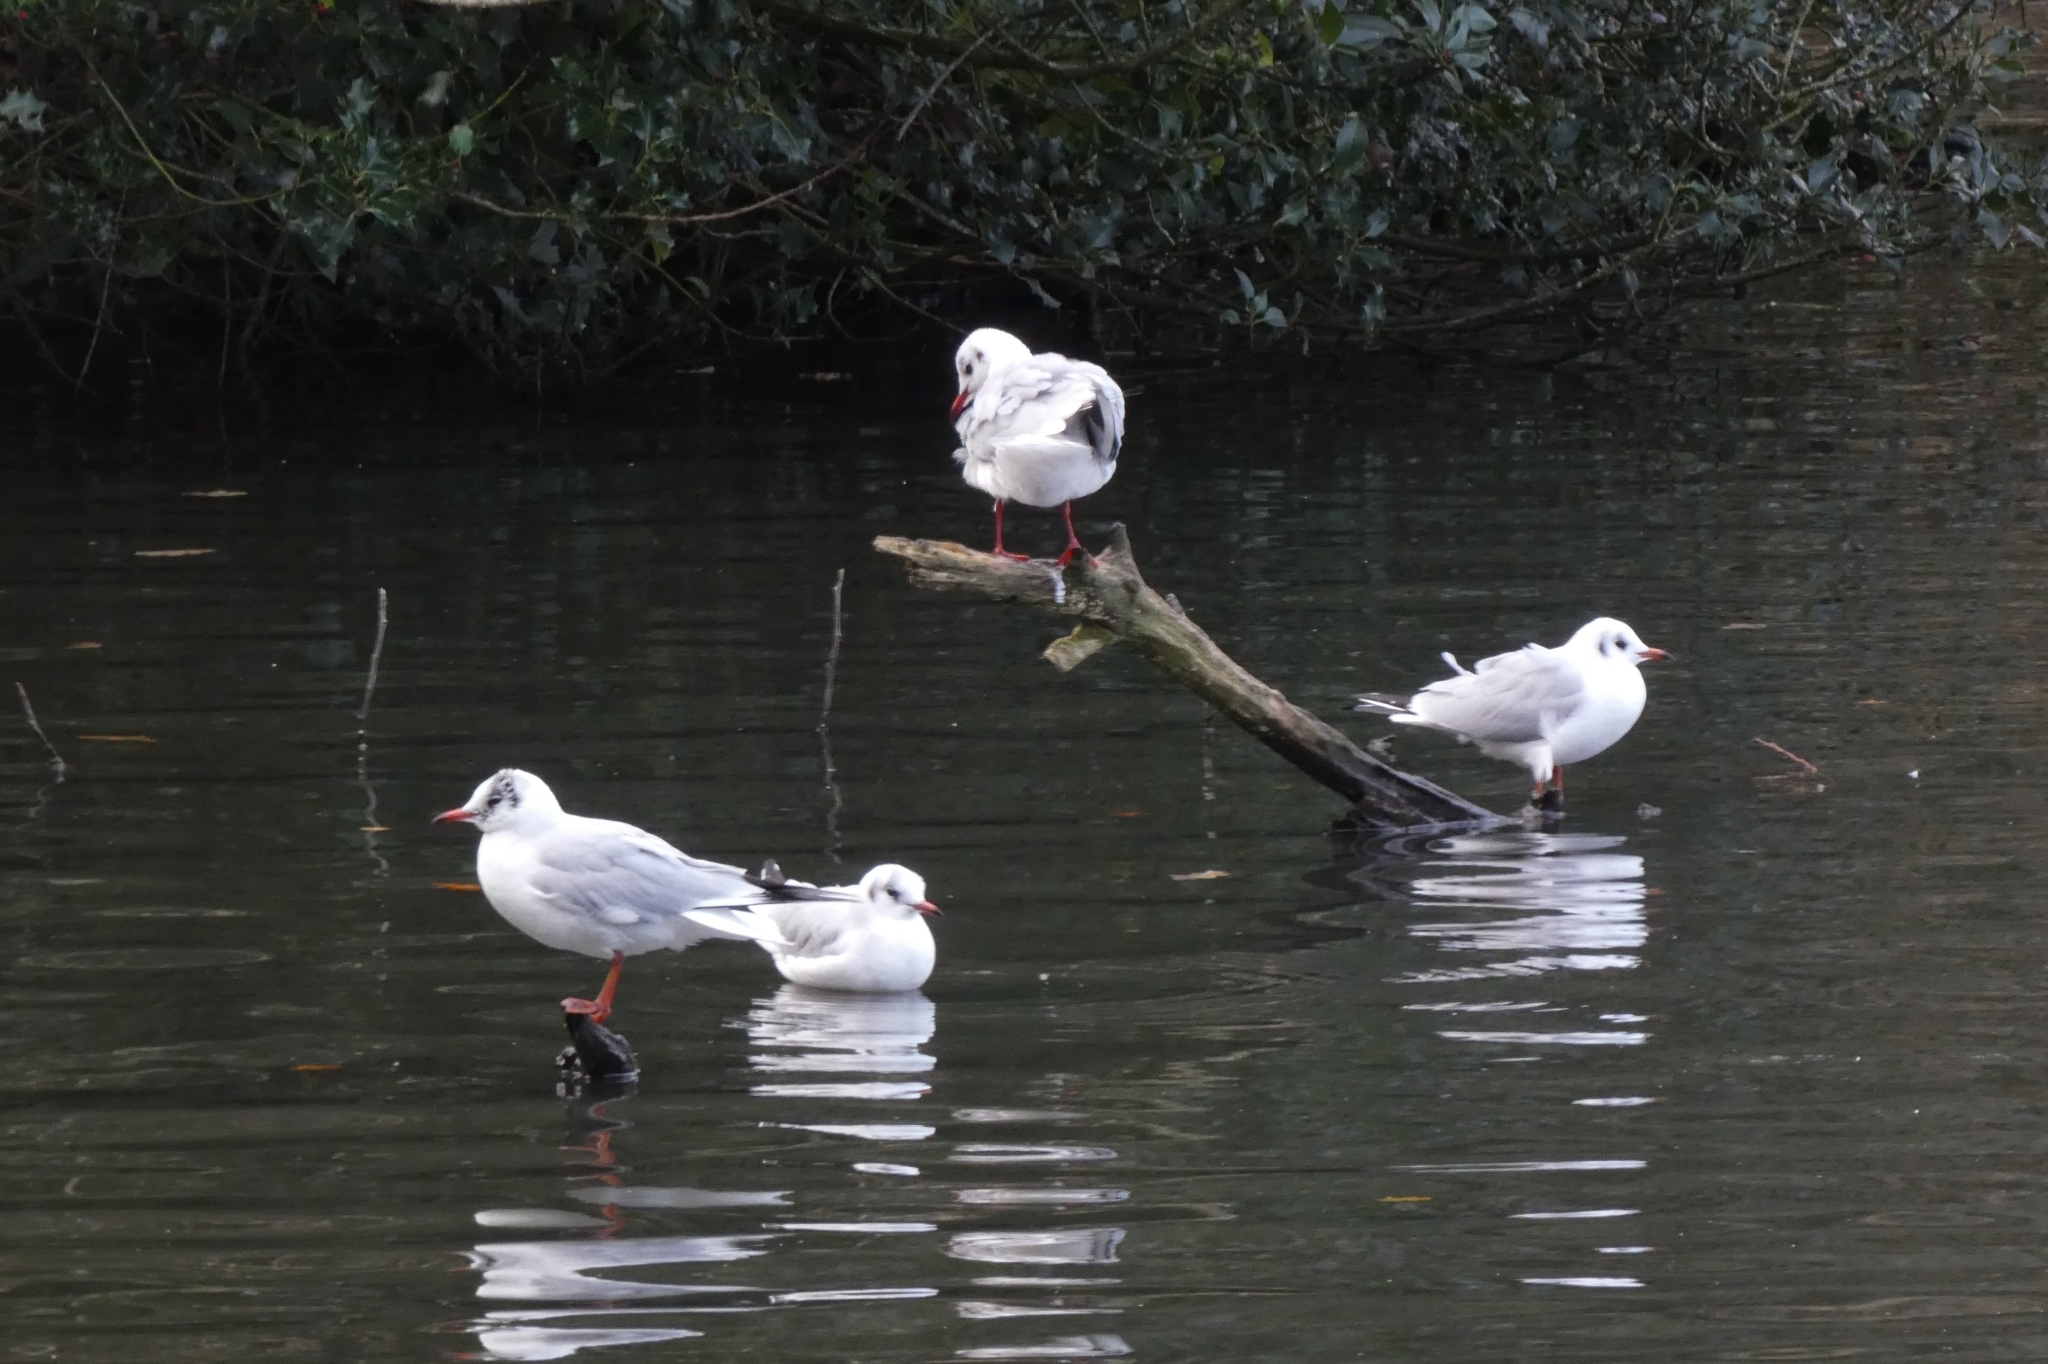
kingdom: Animalia
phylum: Chordata
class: Aves
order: Charadriiformes
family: Laridae
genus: Chroicocephalus
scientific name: Chroicocephalus ridibundus
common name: Black-headed gull
